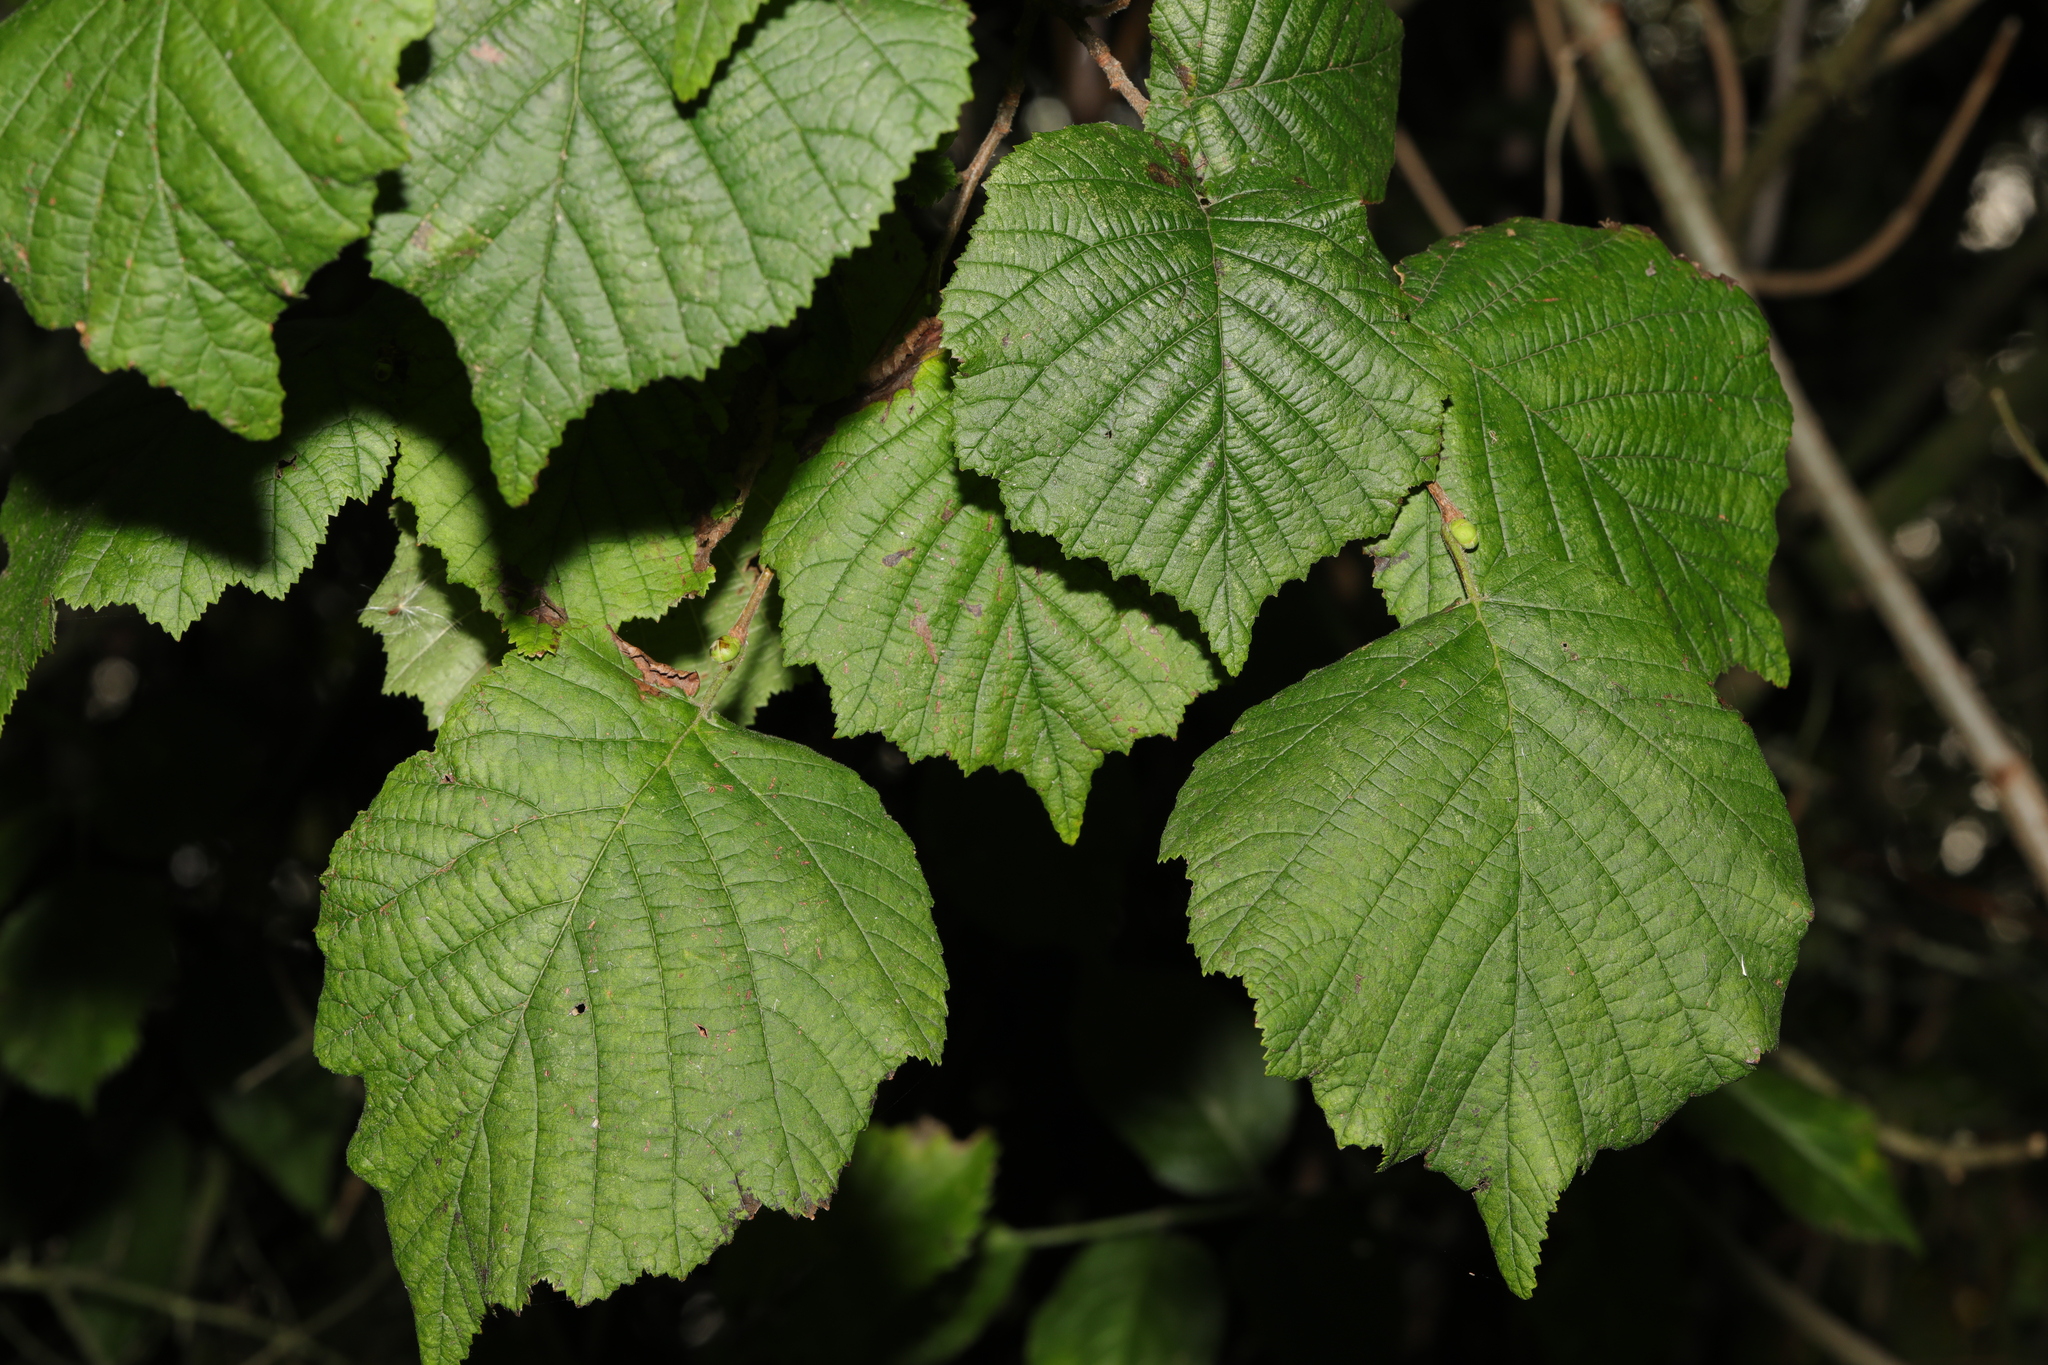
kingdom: Plantae
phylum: Tracheophyta
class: Magnoliopsida
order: Fagales
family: Betulaceae
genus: Corylus
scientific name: Corylus avellana
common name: European hazel
